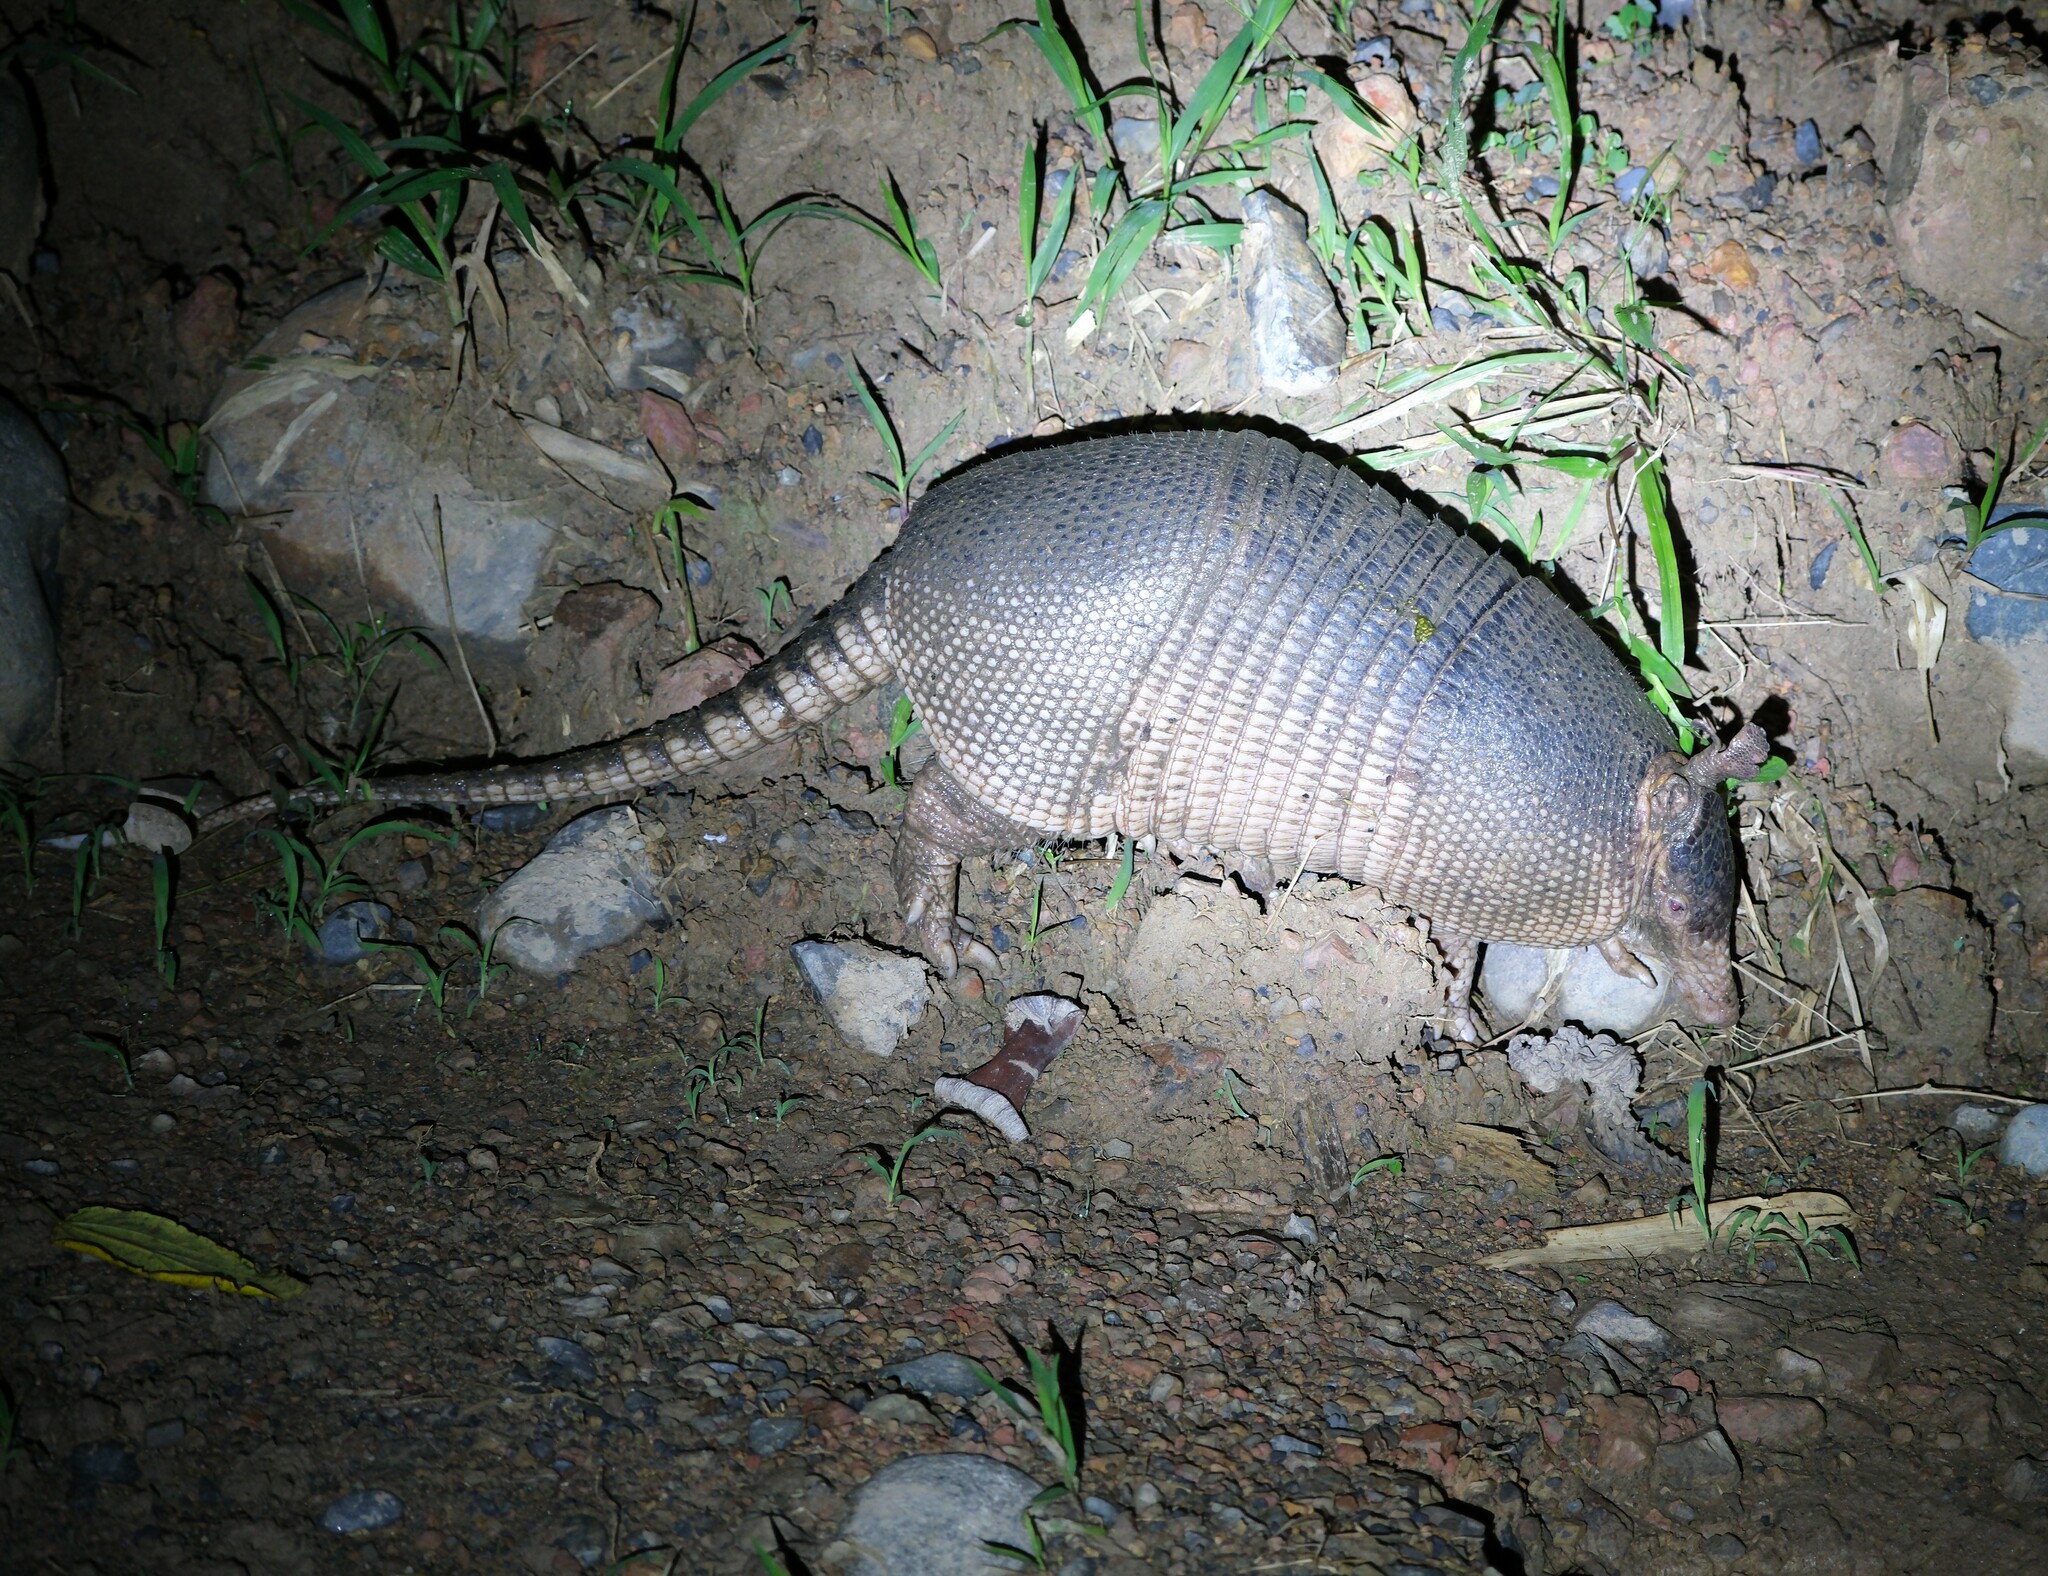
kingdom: Animalia
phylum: Chordata
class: Mammalia
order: Cingulata
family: Dasypodidae
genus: Dasypus
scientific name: Dasypus novemcinctus
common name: Nine-banded armadillo
